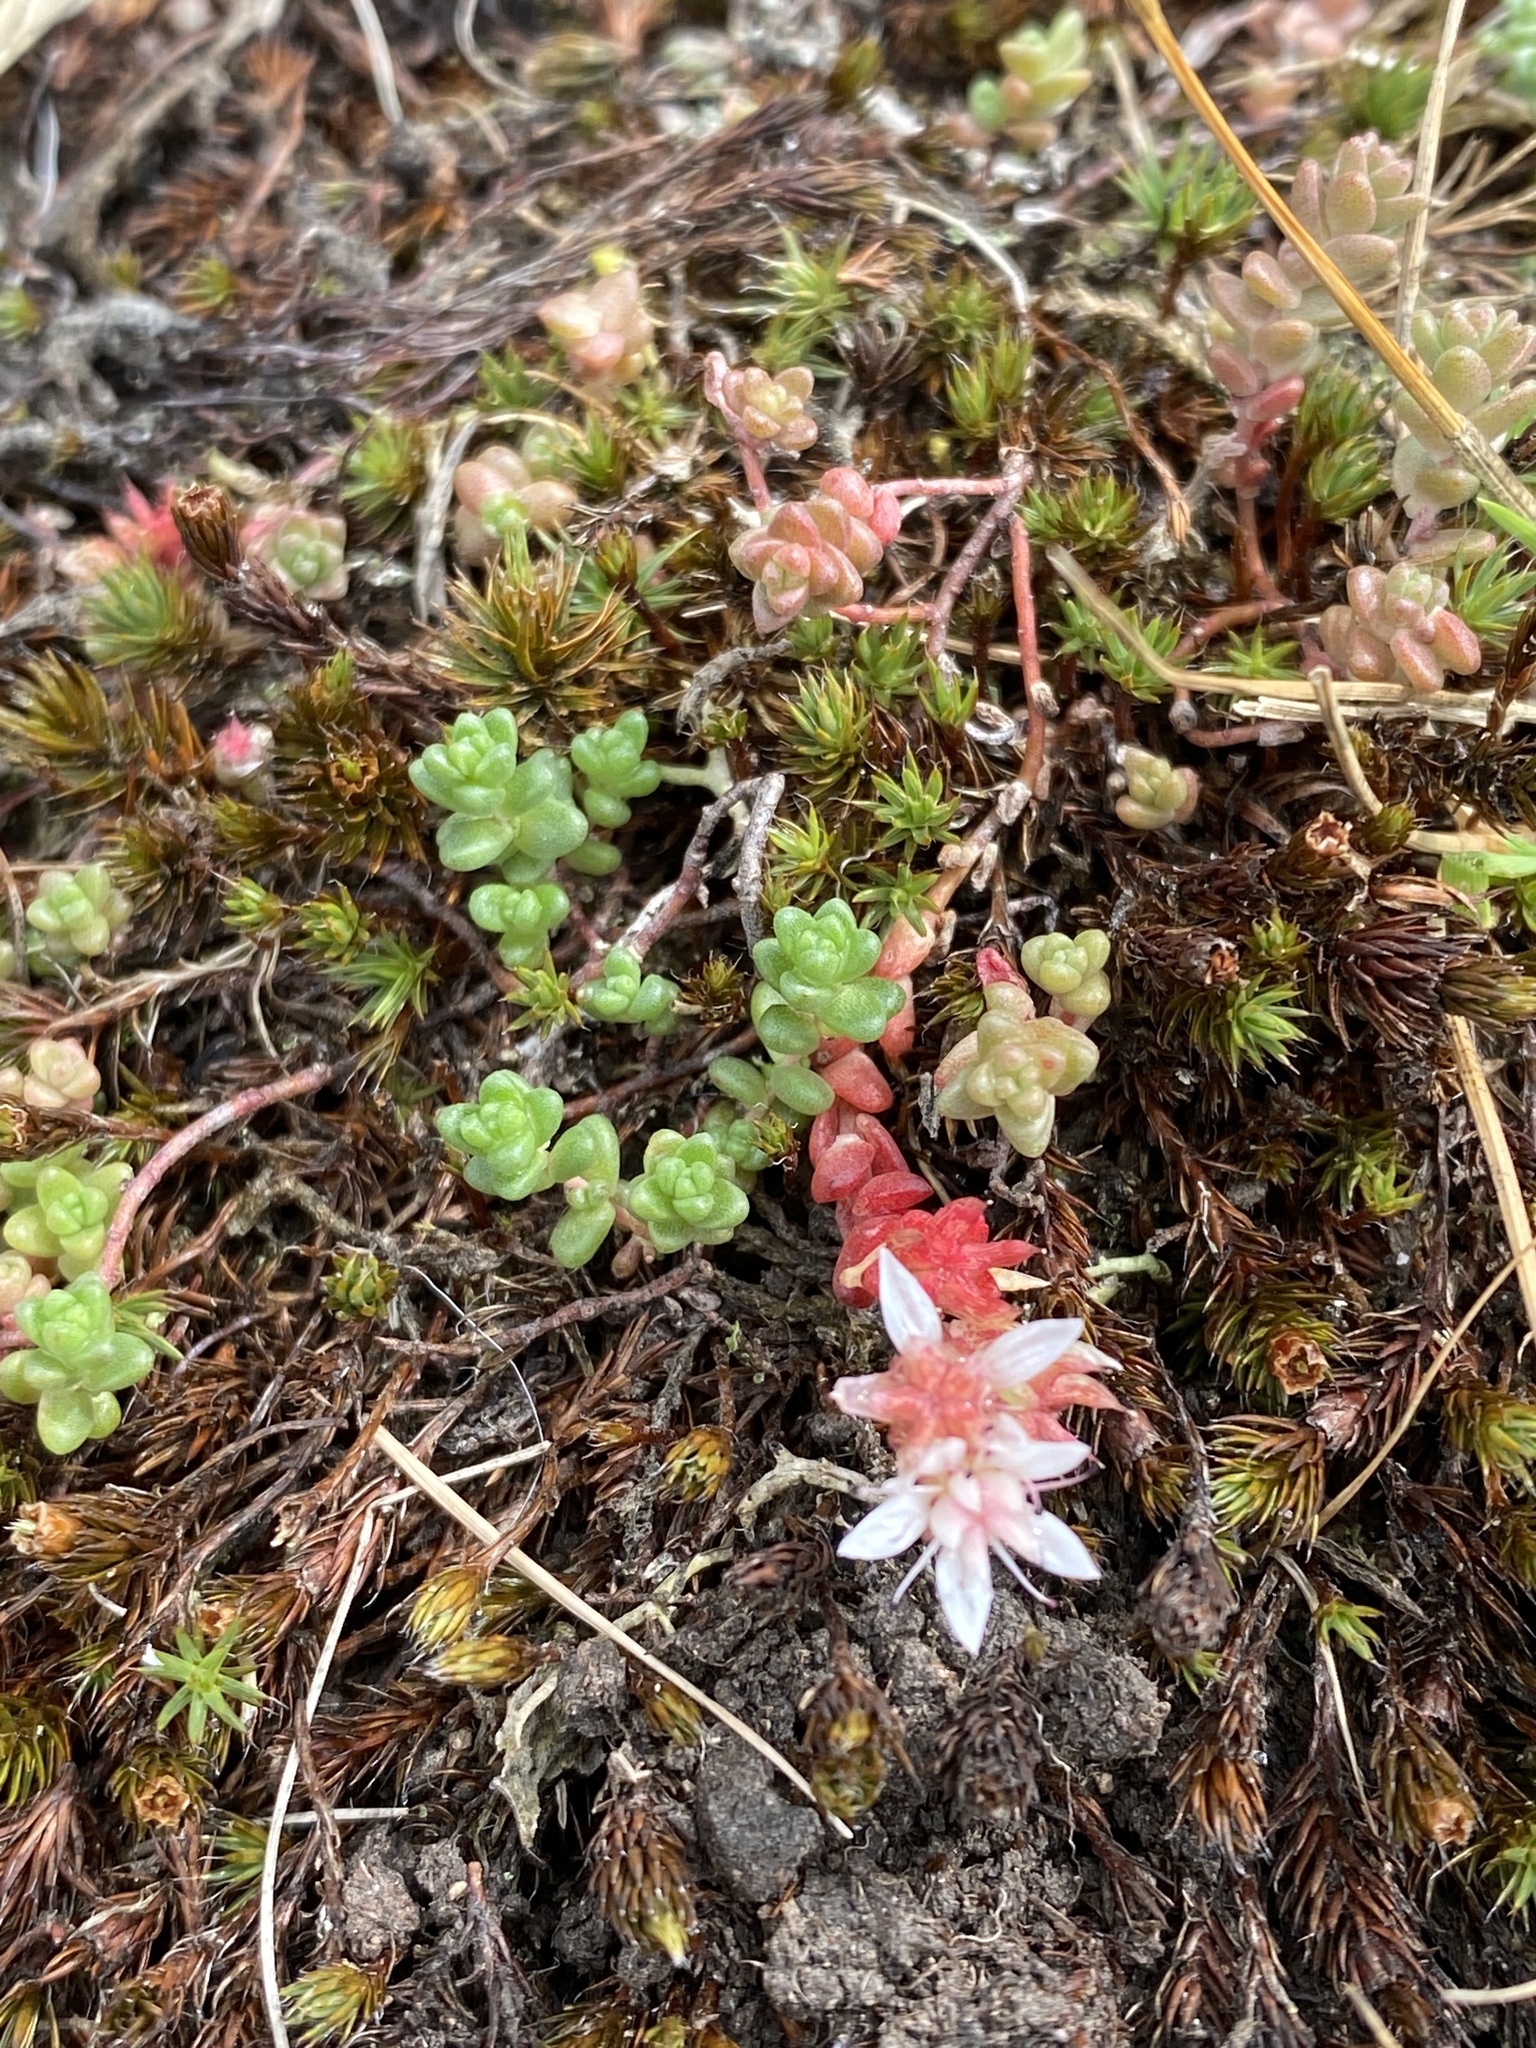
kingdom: Plantae
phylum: Tracheophyta
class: Magnoliopsida
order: Saxifragales
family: Crassulaceae
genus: Sedum
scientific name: Sedum anglicum
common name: English stonecrop
